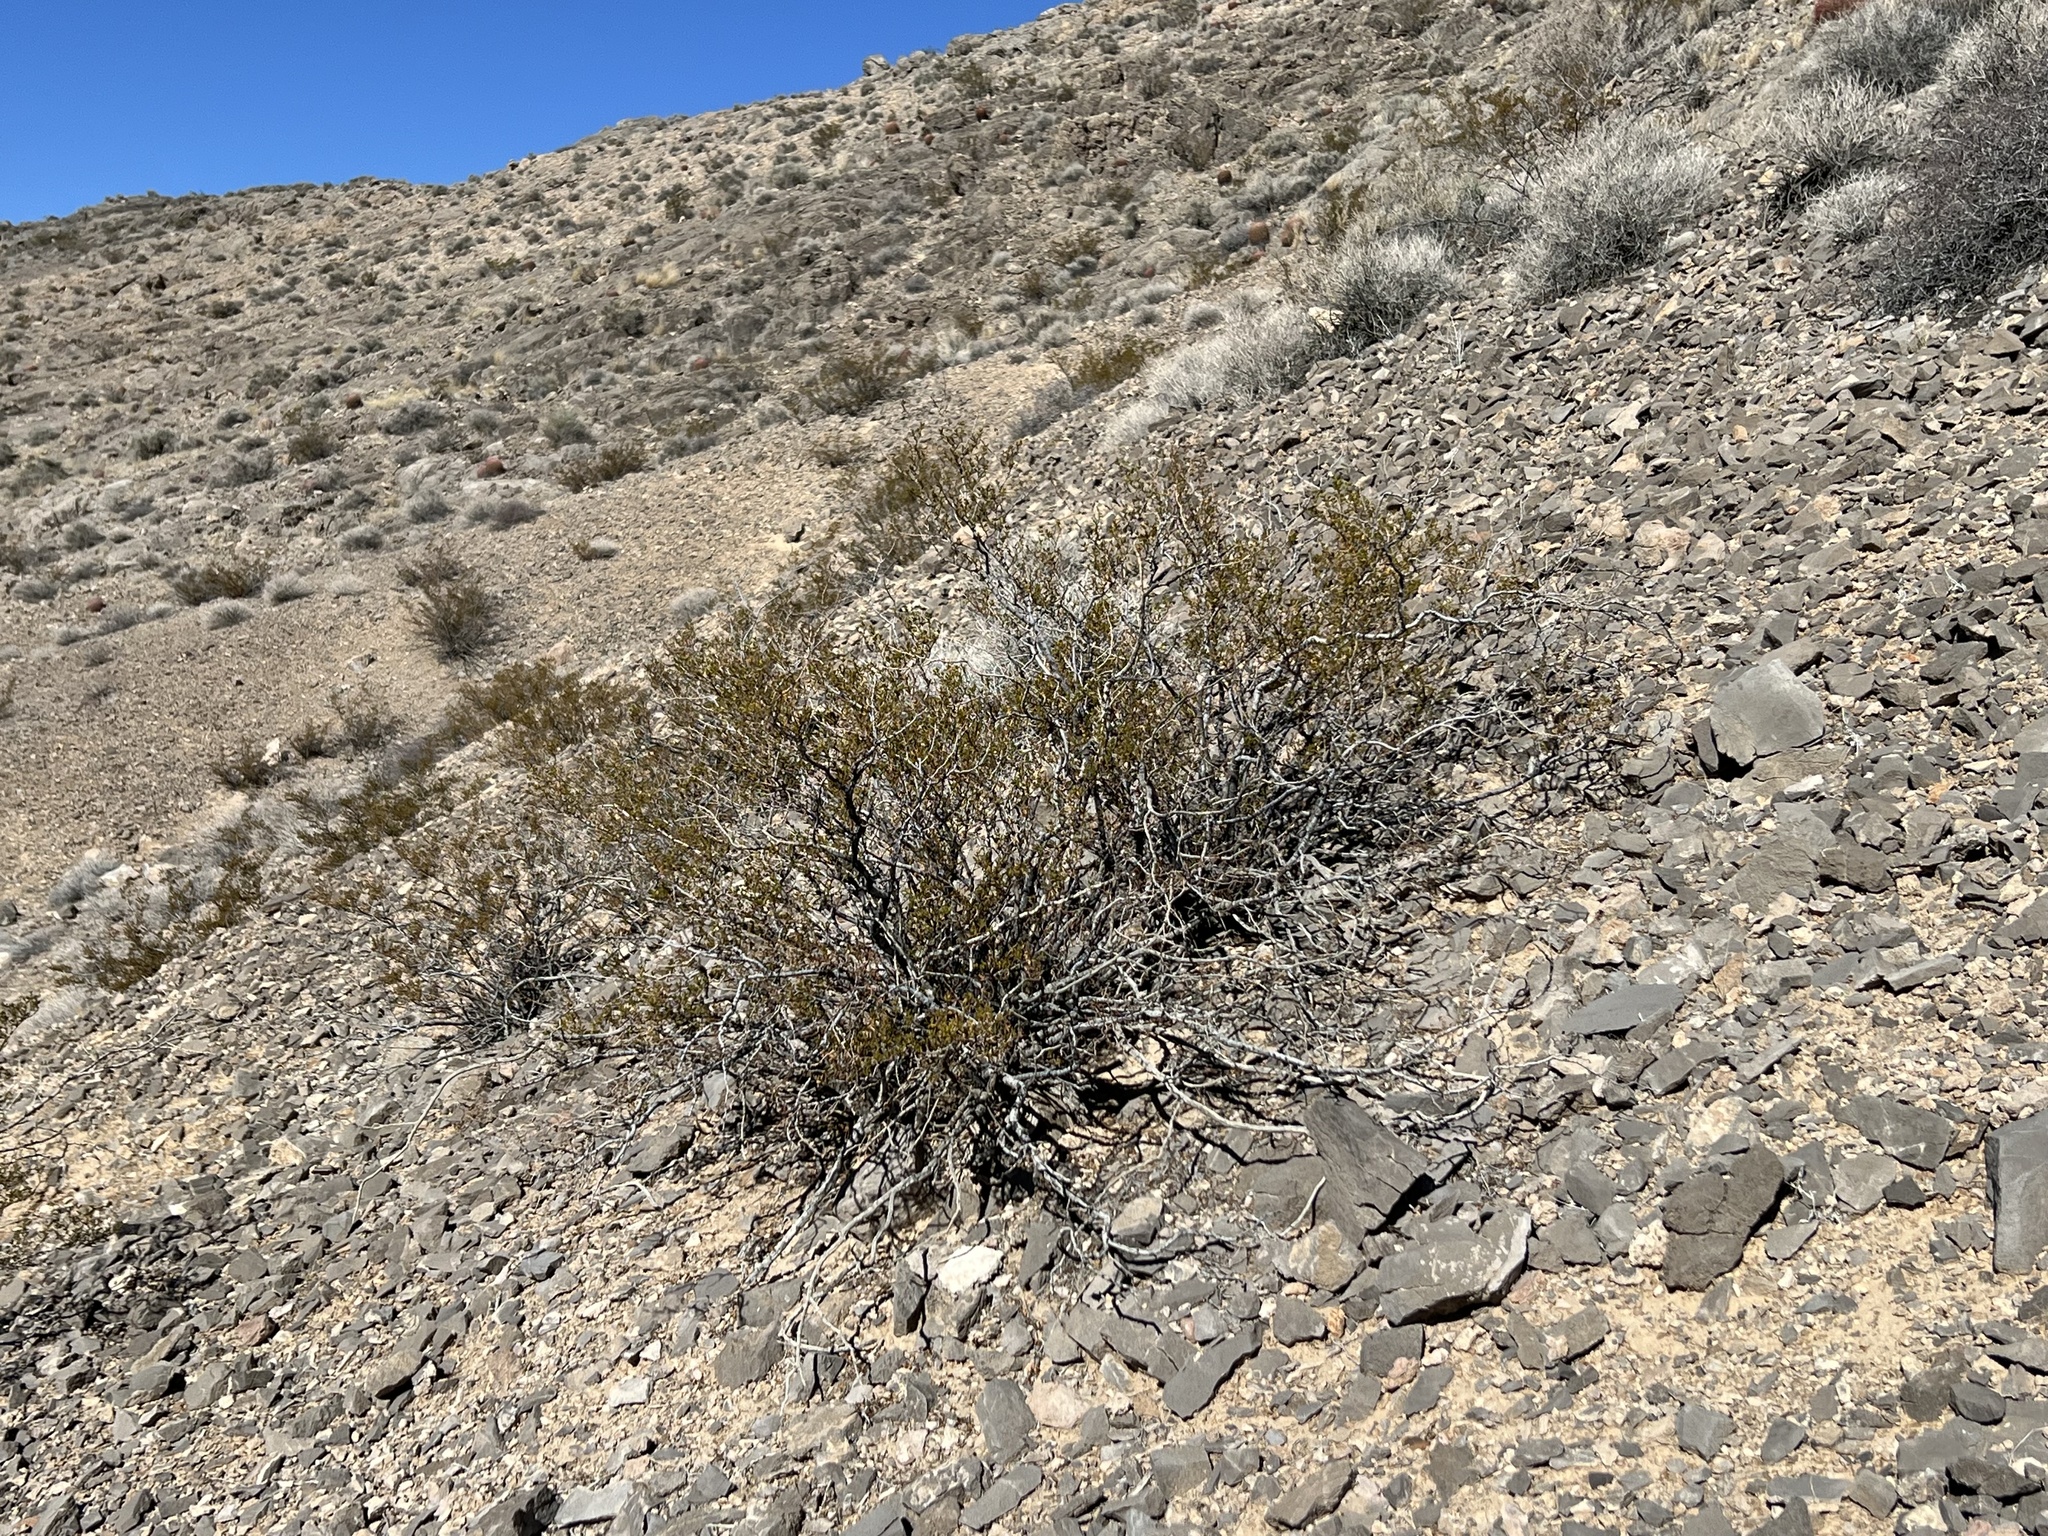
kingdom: Plantae
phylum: Tracheophyta
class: Magnoliopsida
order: Zygophyllales
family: Zygophyllaceae
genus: Larrea
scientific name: Larrea tridentata
